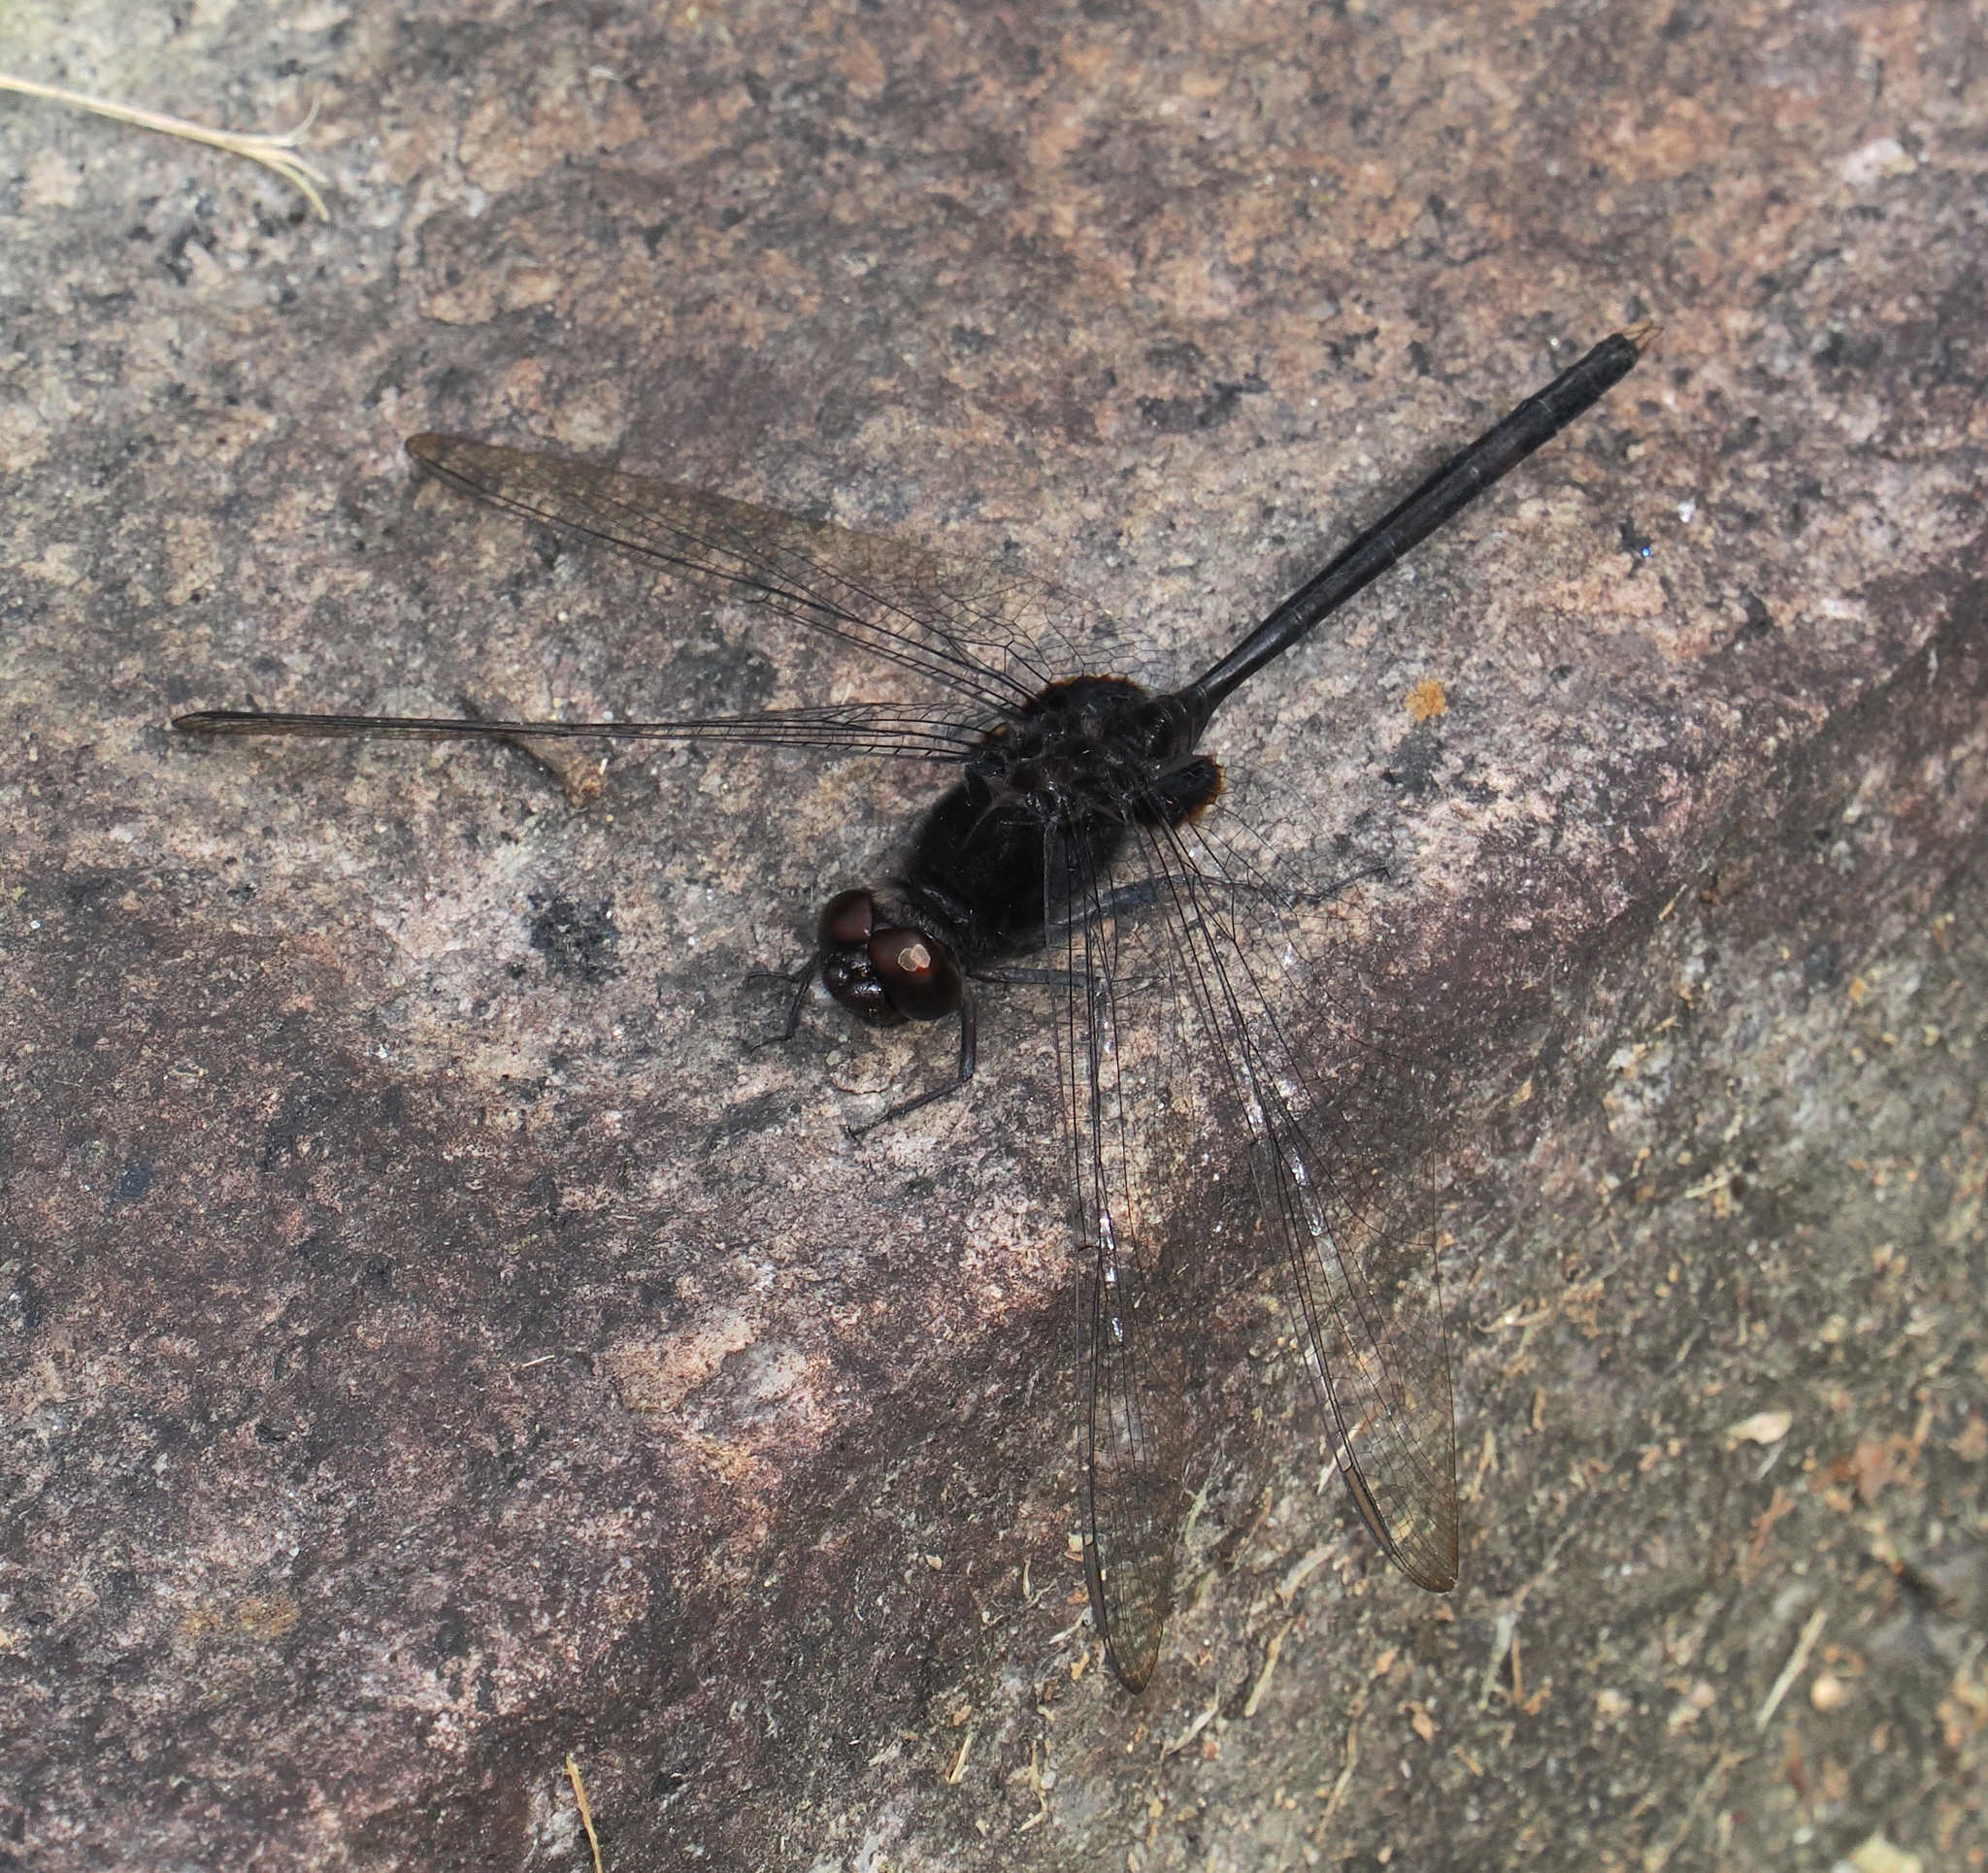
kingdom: Animalia
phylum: Arthropoda
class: Insecta
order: Odonata
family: Libellulidae
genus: Erythemis
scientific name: Erythemis plebeja
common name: Pin-tailed pondhawk
